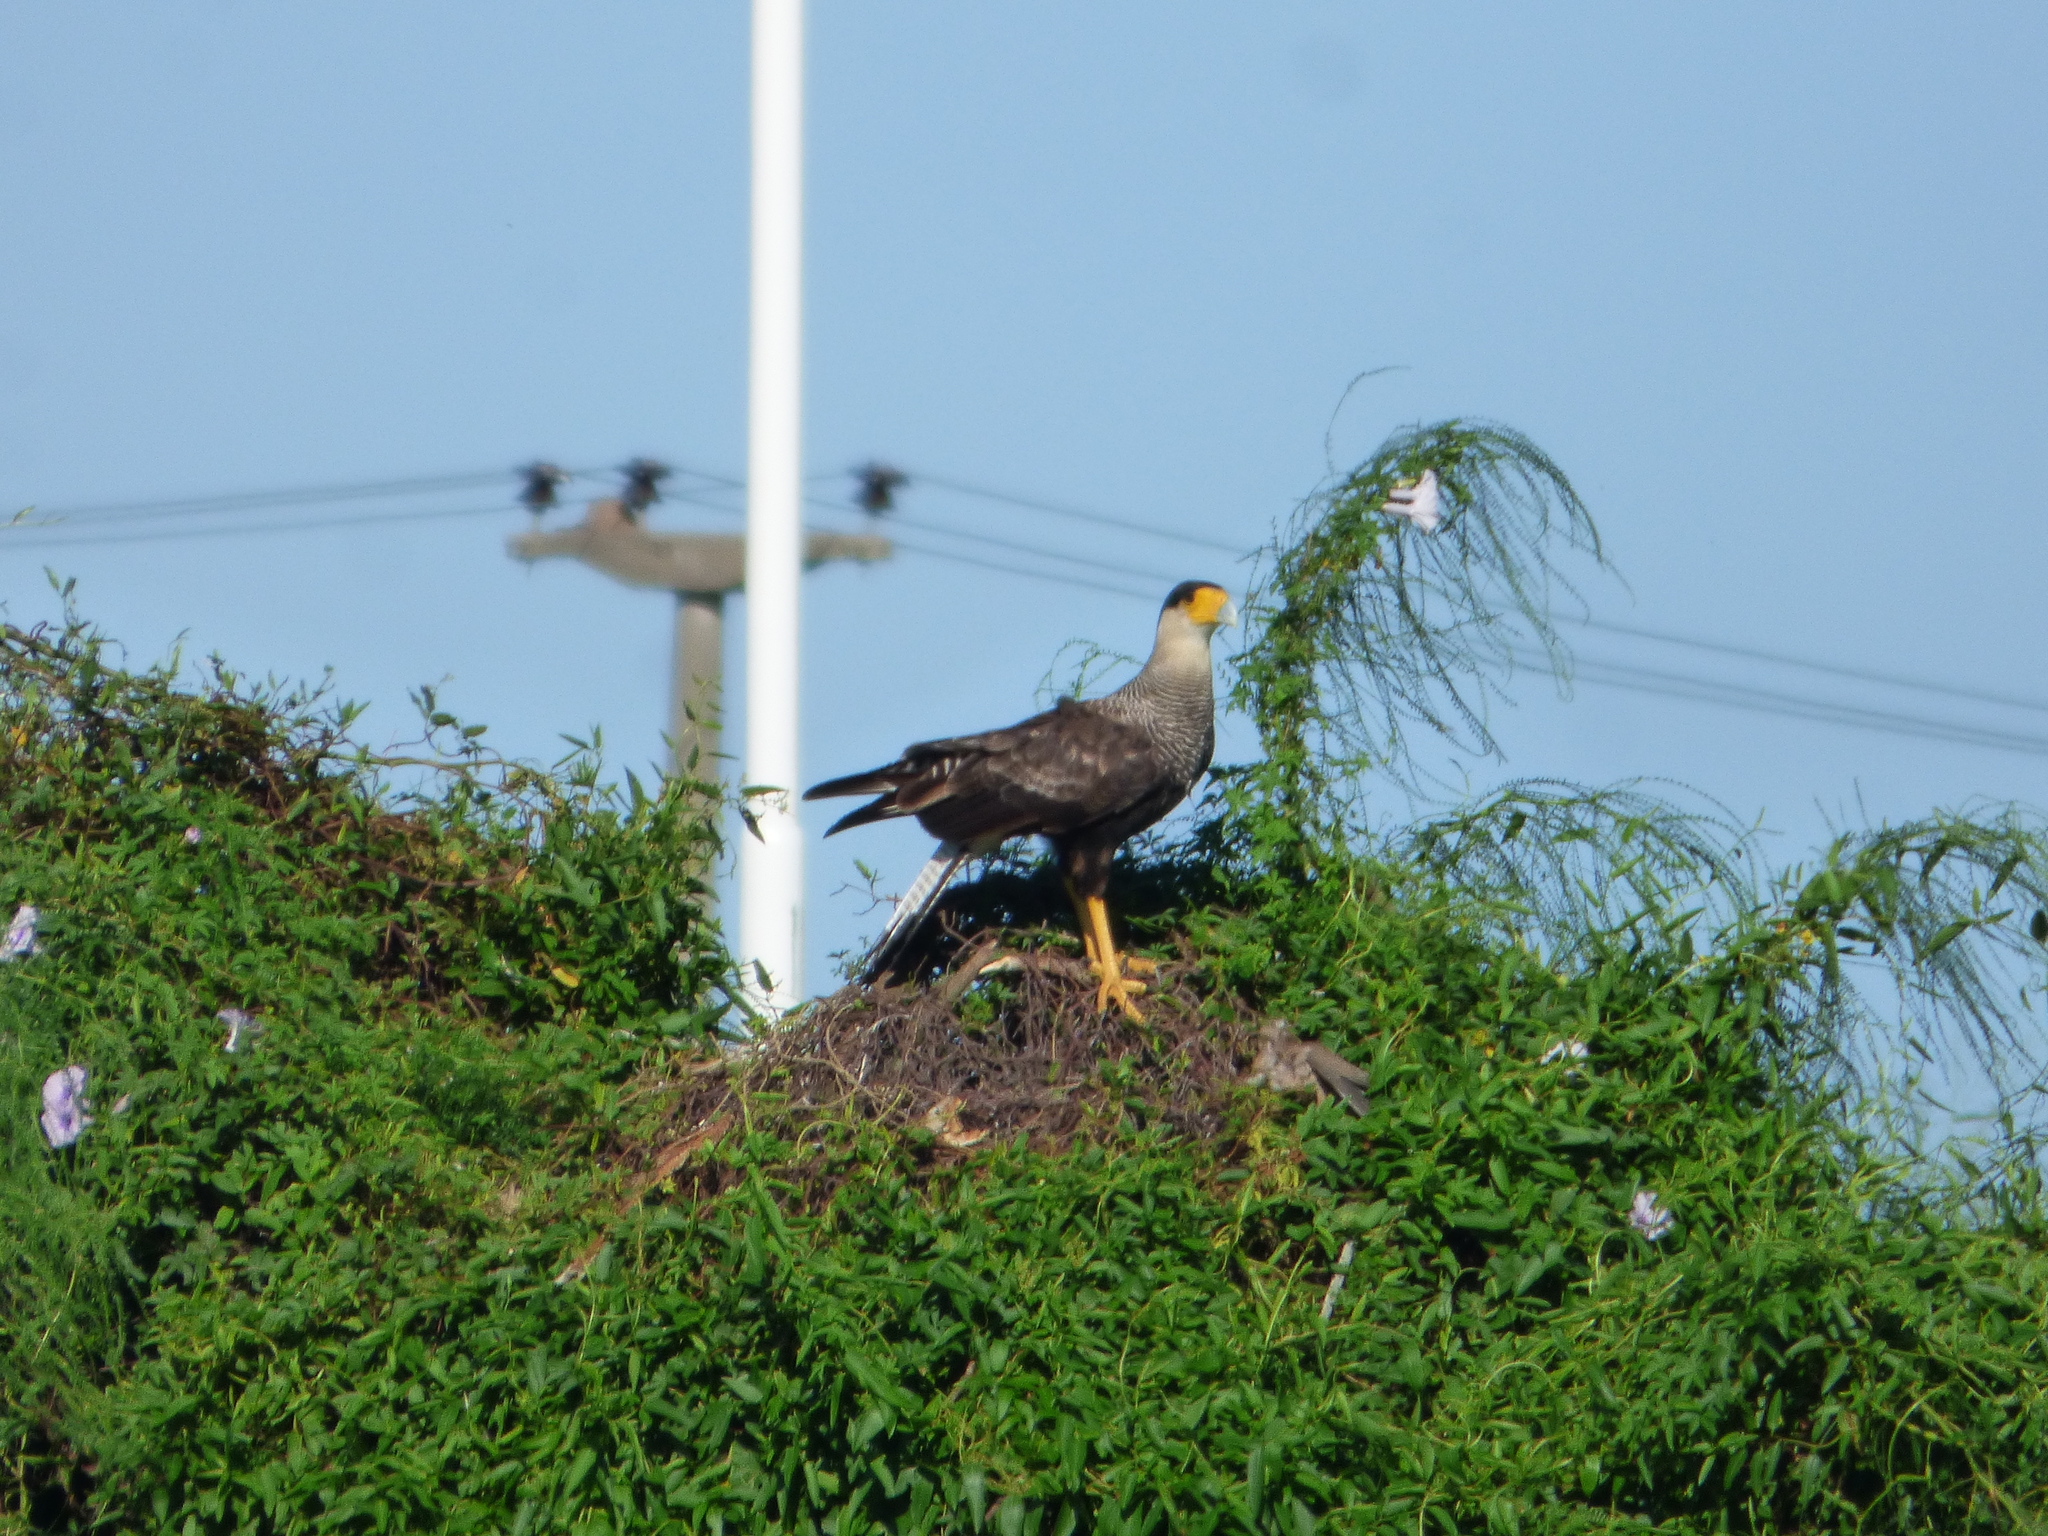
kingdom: Animalia
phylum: Chordata
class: Aves
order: Falconiformes
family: Falconidae
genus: Caracara
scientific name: Caracara plancus
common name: Southern caracara
